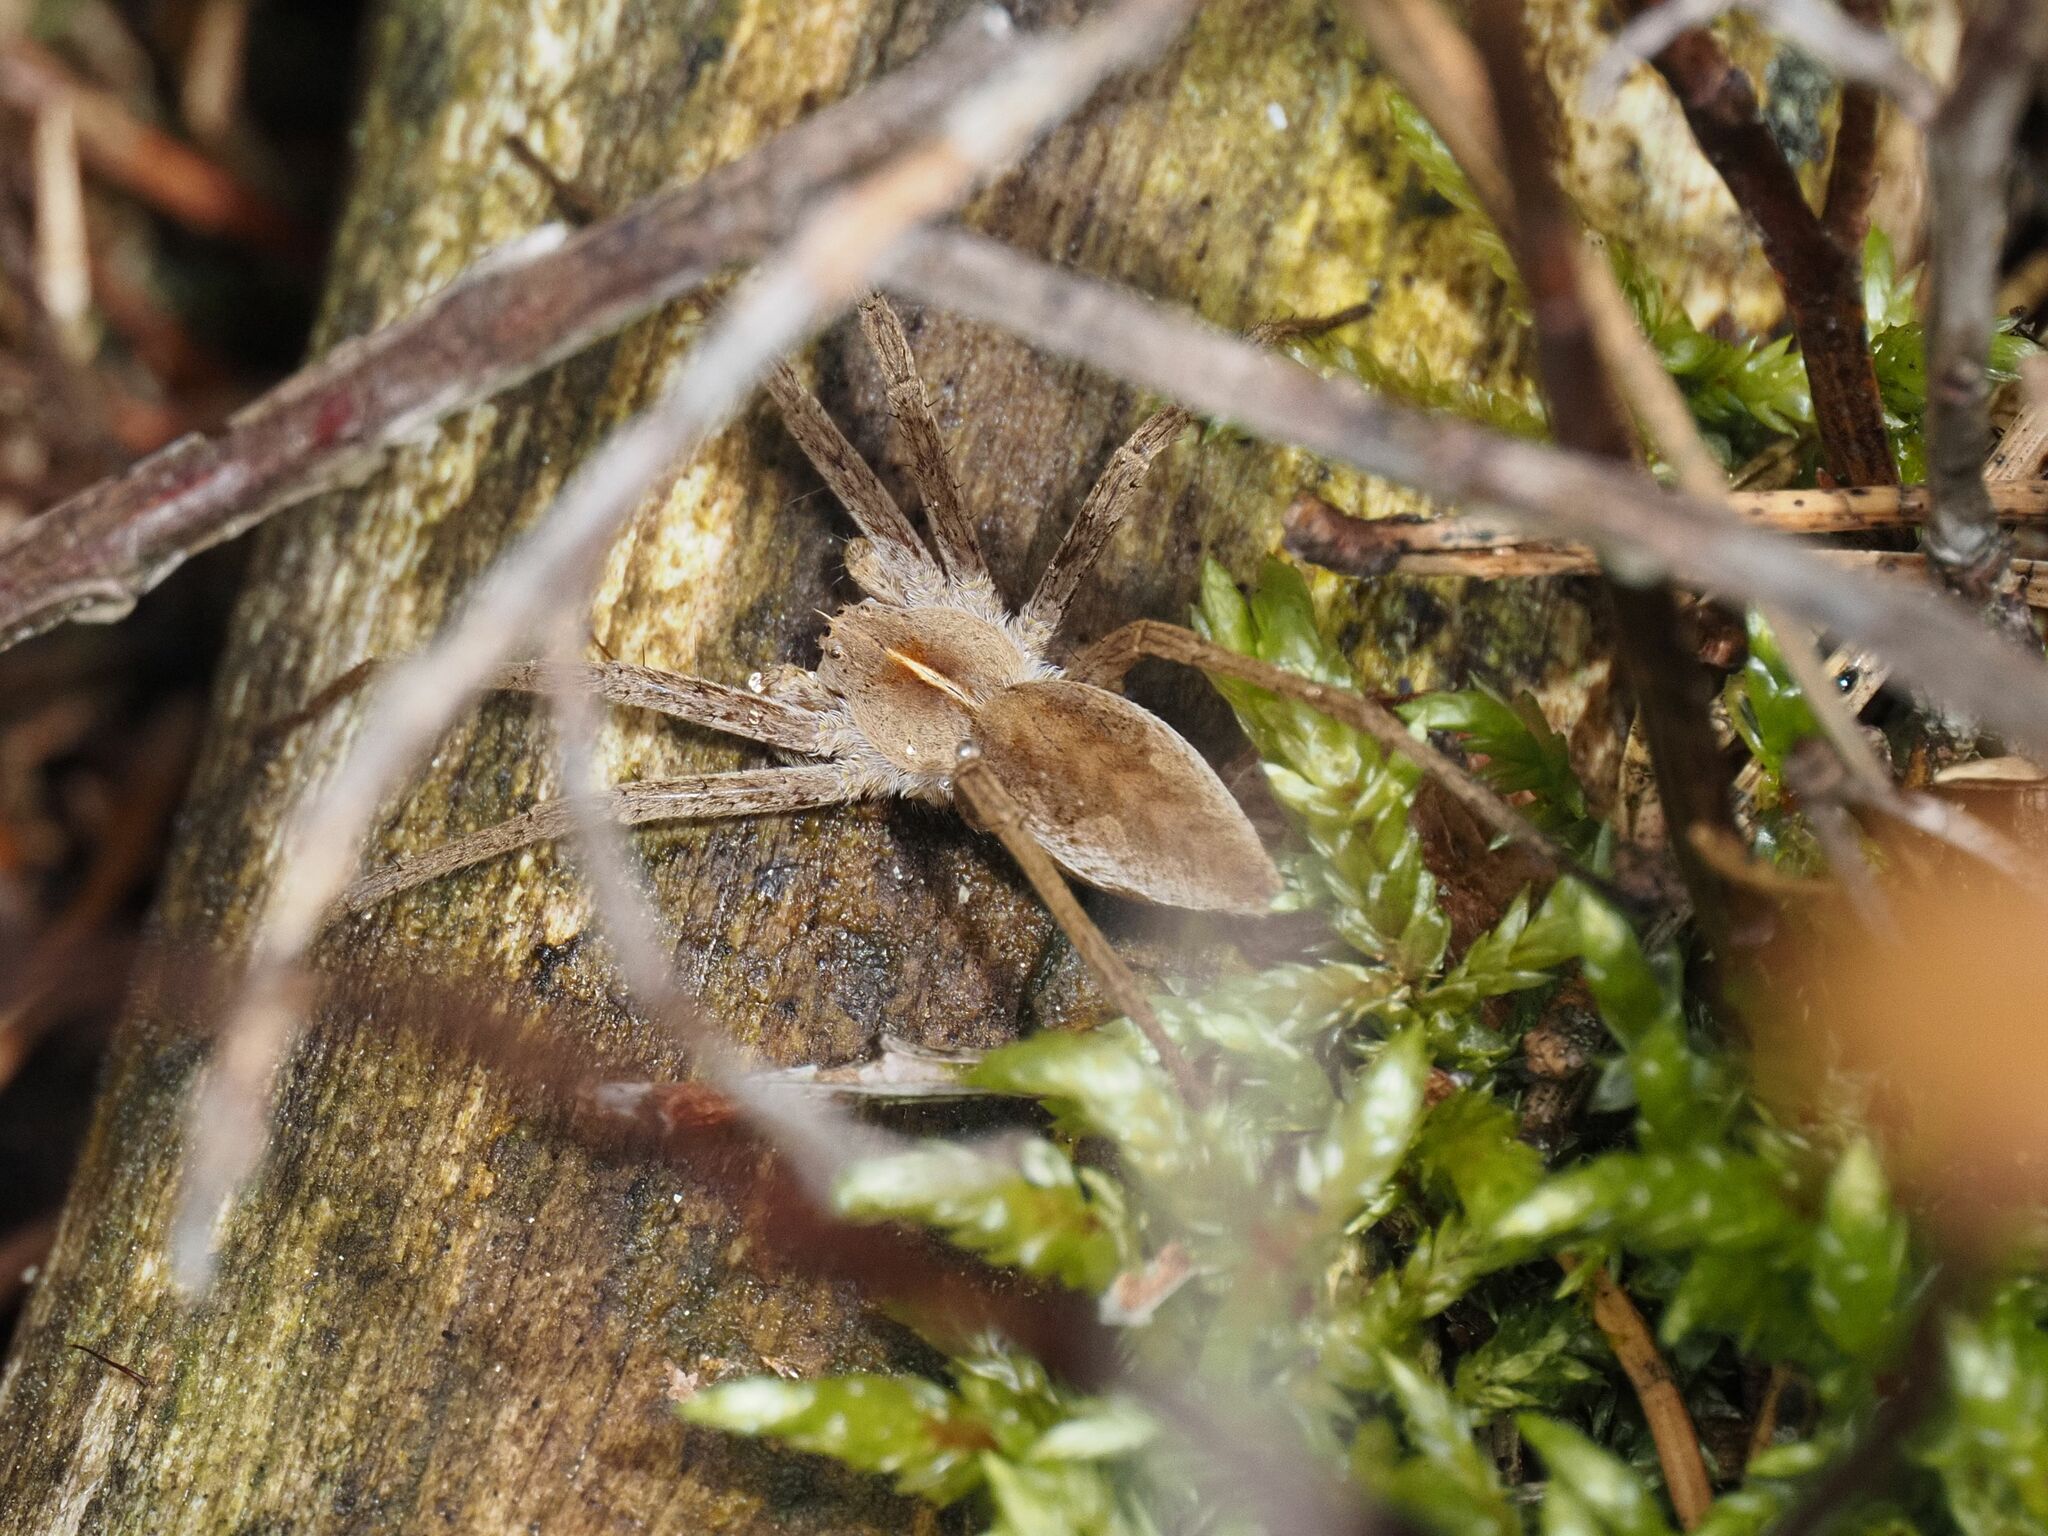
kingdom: Animalia
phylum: Arthropoda
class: Arachnida
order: Araneae
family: Pisauridae
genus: Pisaura
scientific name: Pisaura mirabilis
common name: Tent spider
